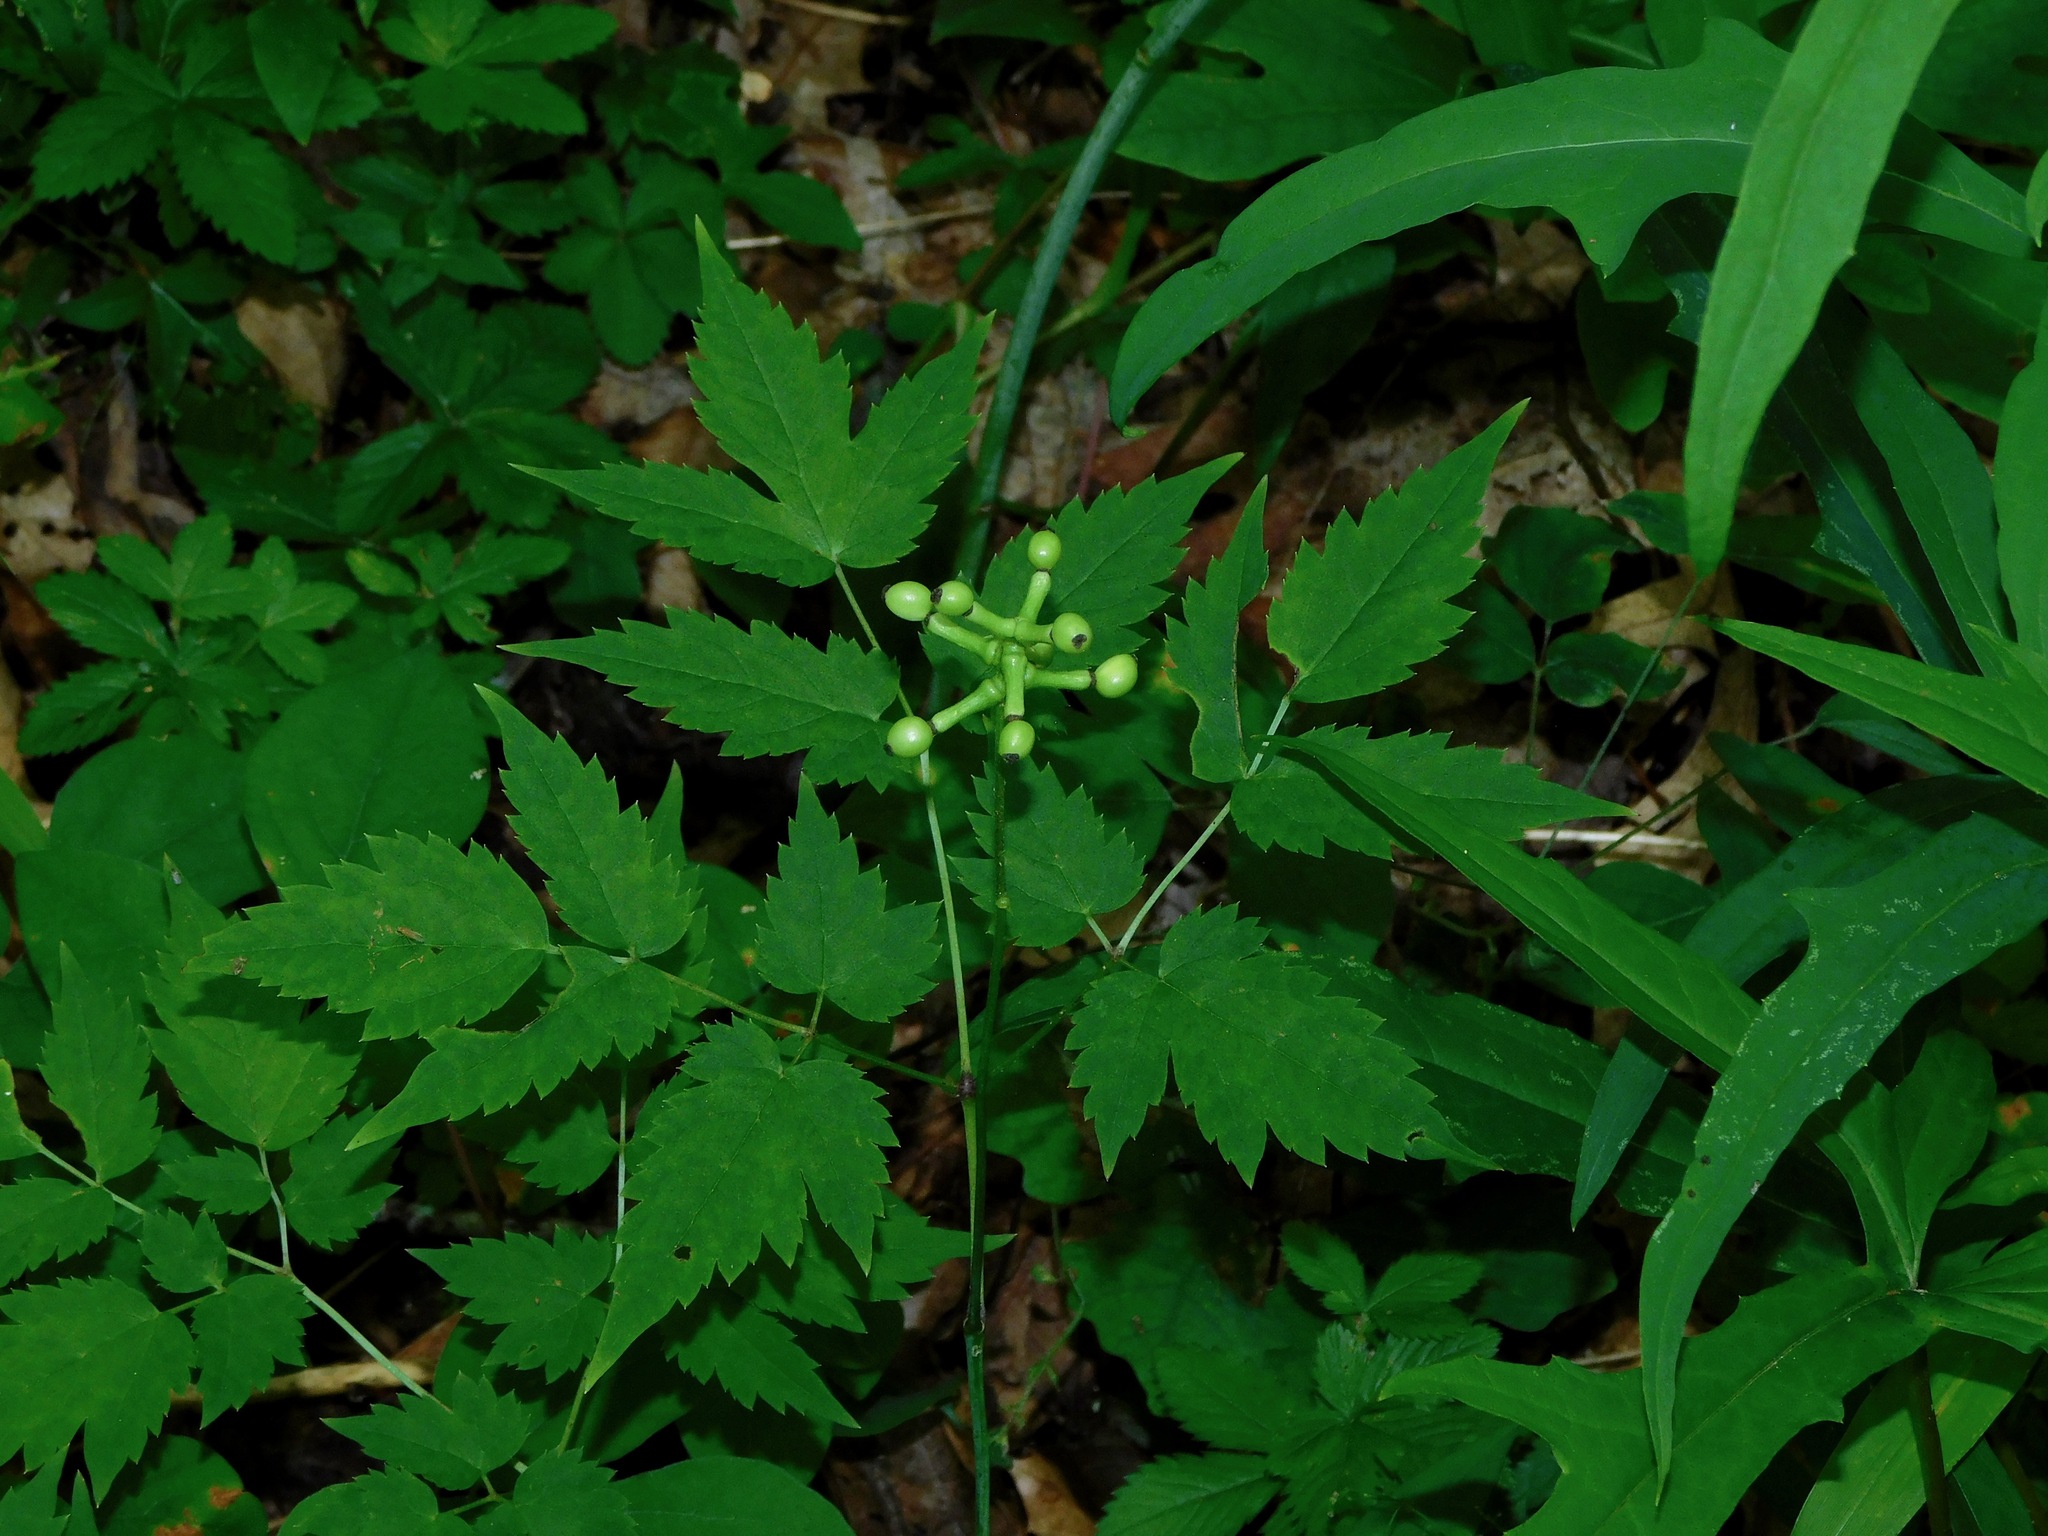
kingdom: Plantae
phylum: Tracheophyta
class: Magnoliopsida
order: Ranunculales
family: Ranunculaceae
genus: Actaea
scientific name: Actaea pachypoda
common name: Doll's-eyes
